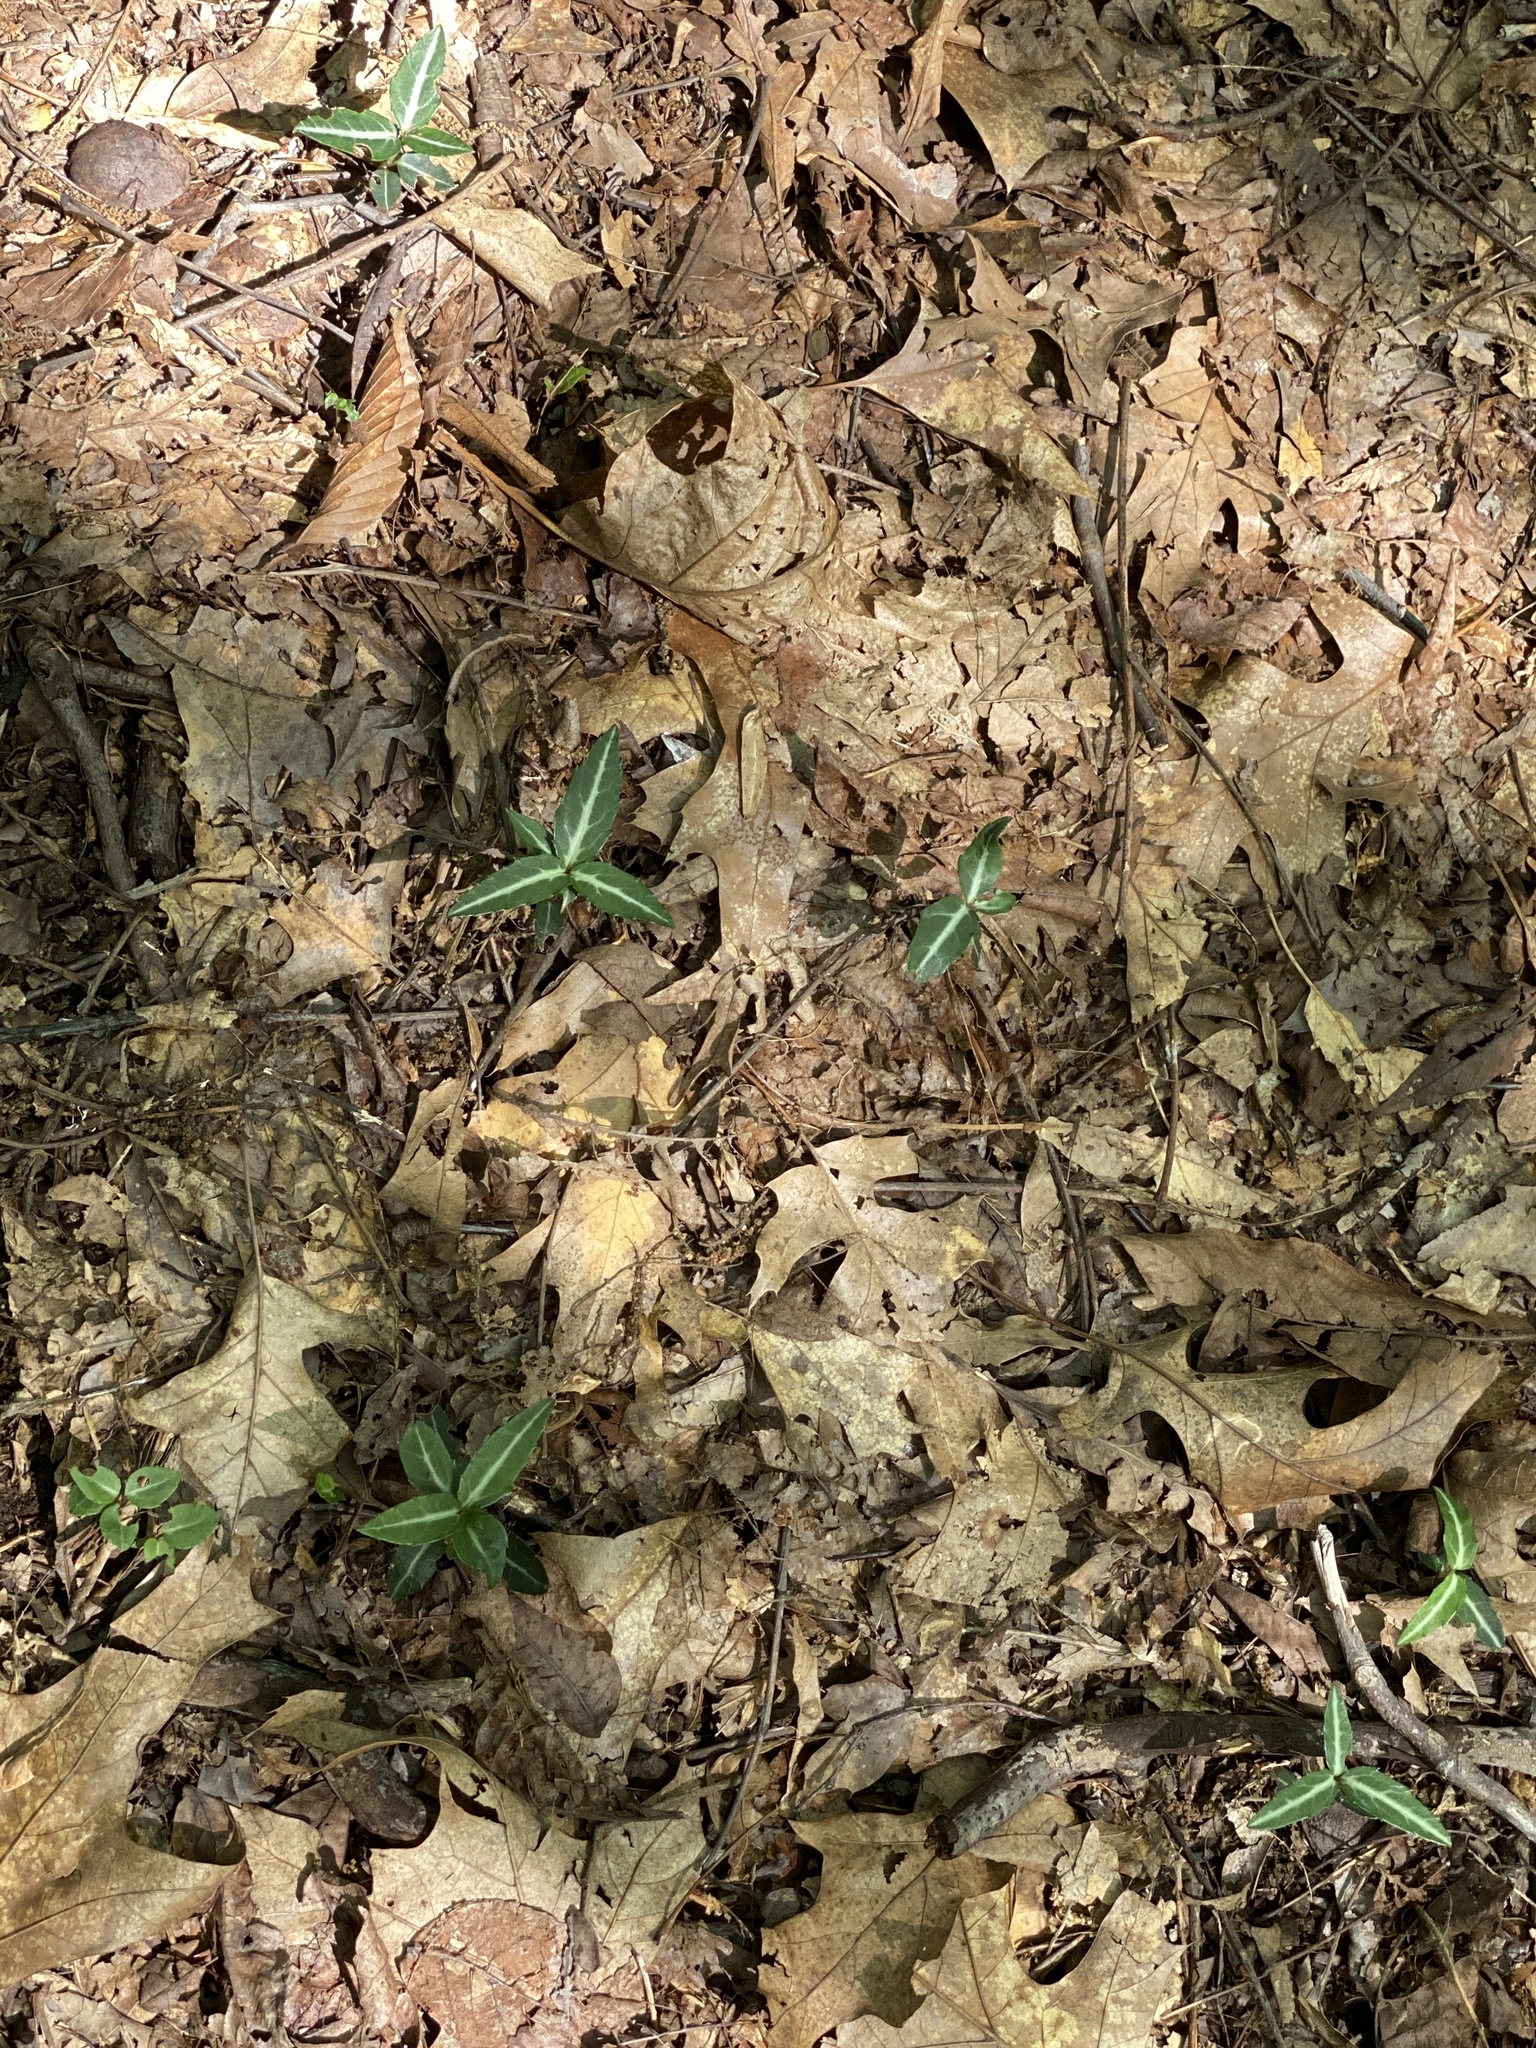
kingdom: Plantae
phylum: Tracheophyta
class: Magnoliopsida
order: Ericales
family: Ericaceae
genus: Chimaphila
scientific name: Chimaphila maculata
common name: Spotted pipsissewa
